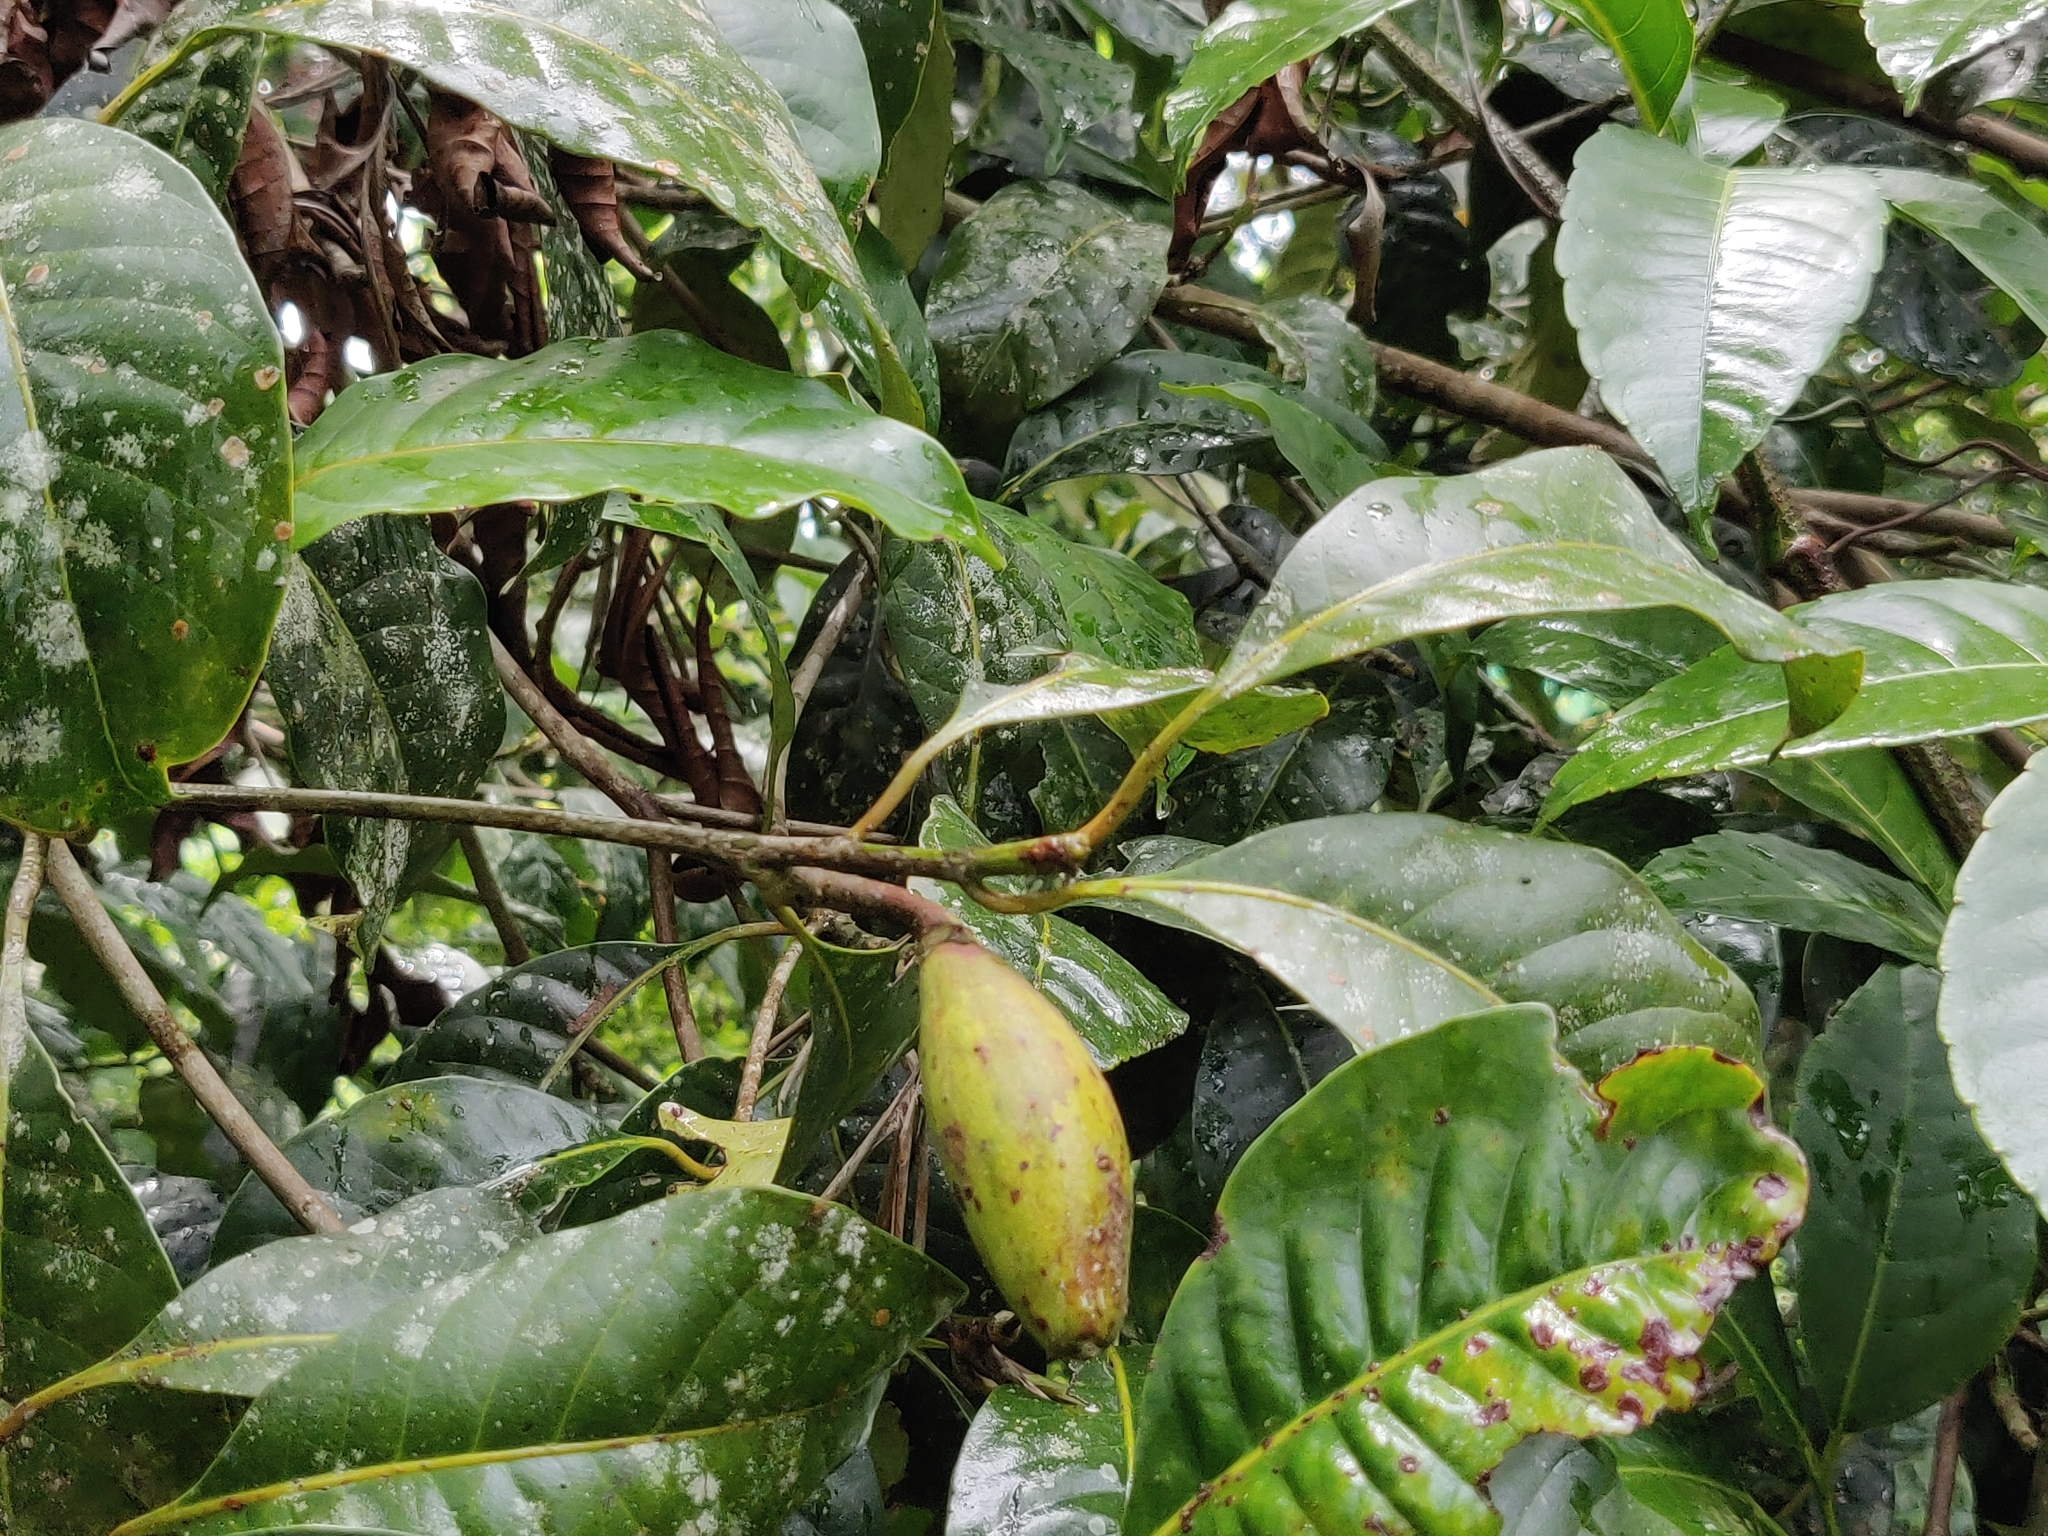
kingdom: Plantae
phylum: Tracheophyta
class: Magnoliopsida
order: Ericales
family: Sapotaceae
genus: Palaquium
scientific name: Palaquium ellipticum
